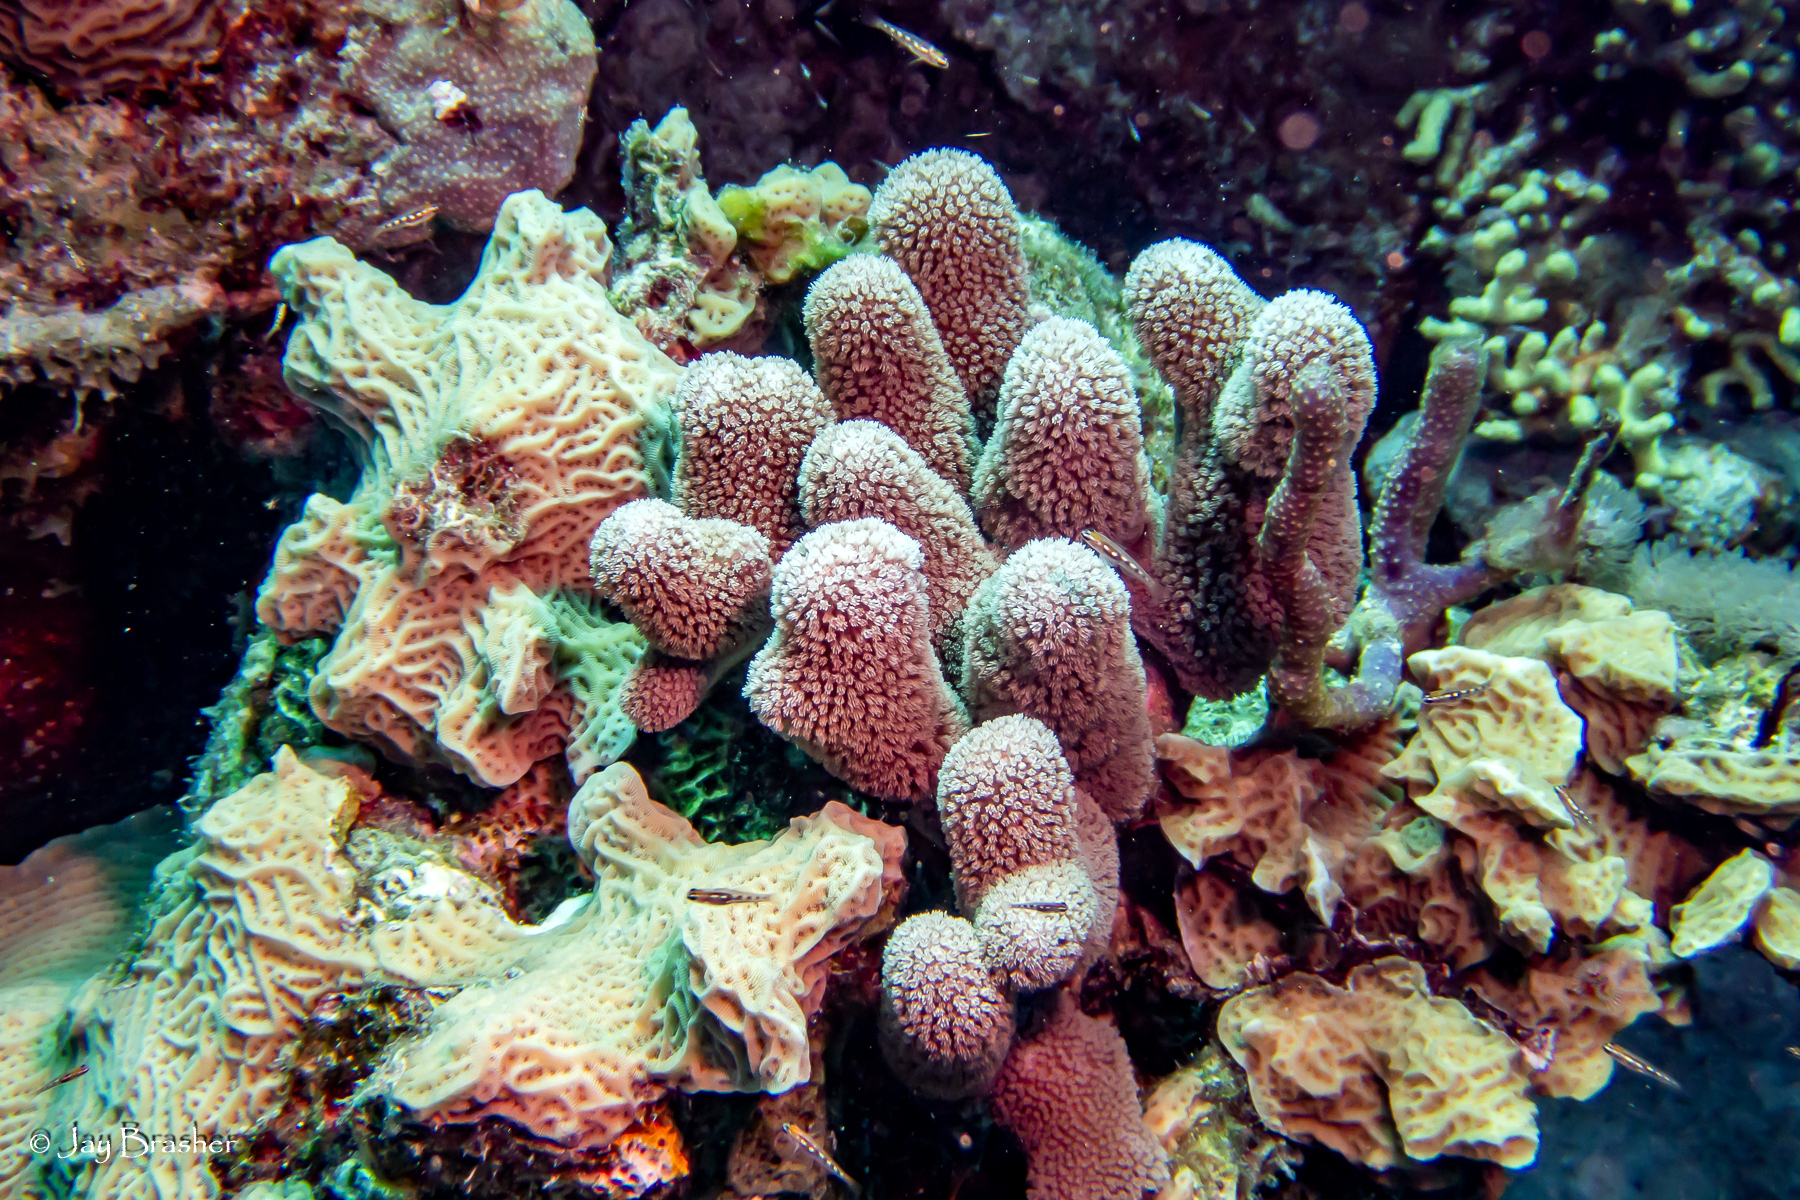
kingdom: Animalia
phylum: Cnidaria
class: Anthozoa
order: Scleractinia
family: Agariciidae
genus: Agaricia
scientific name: Agaricia agaricites
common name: Lettuce coral
